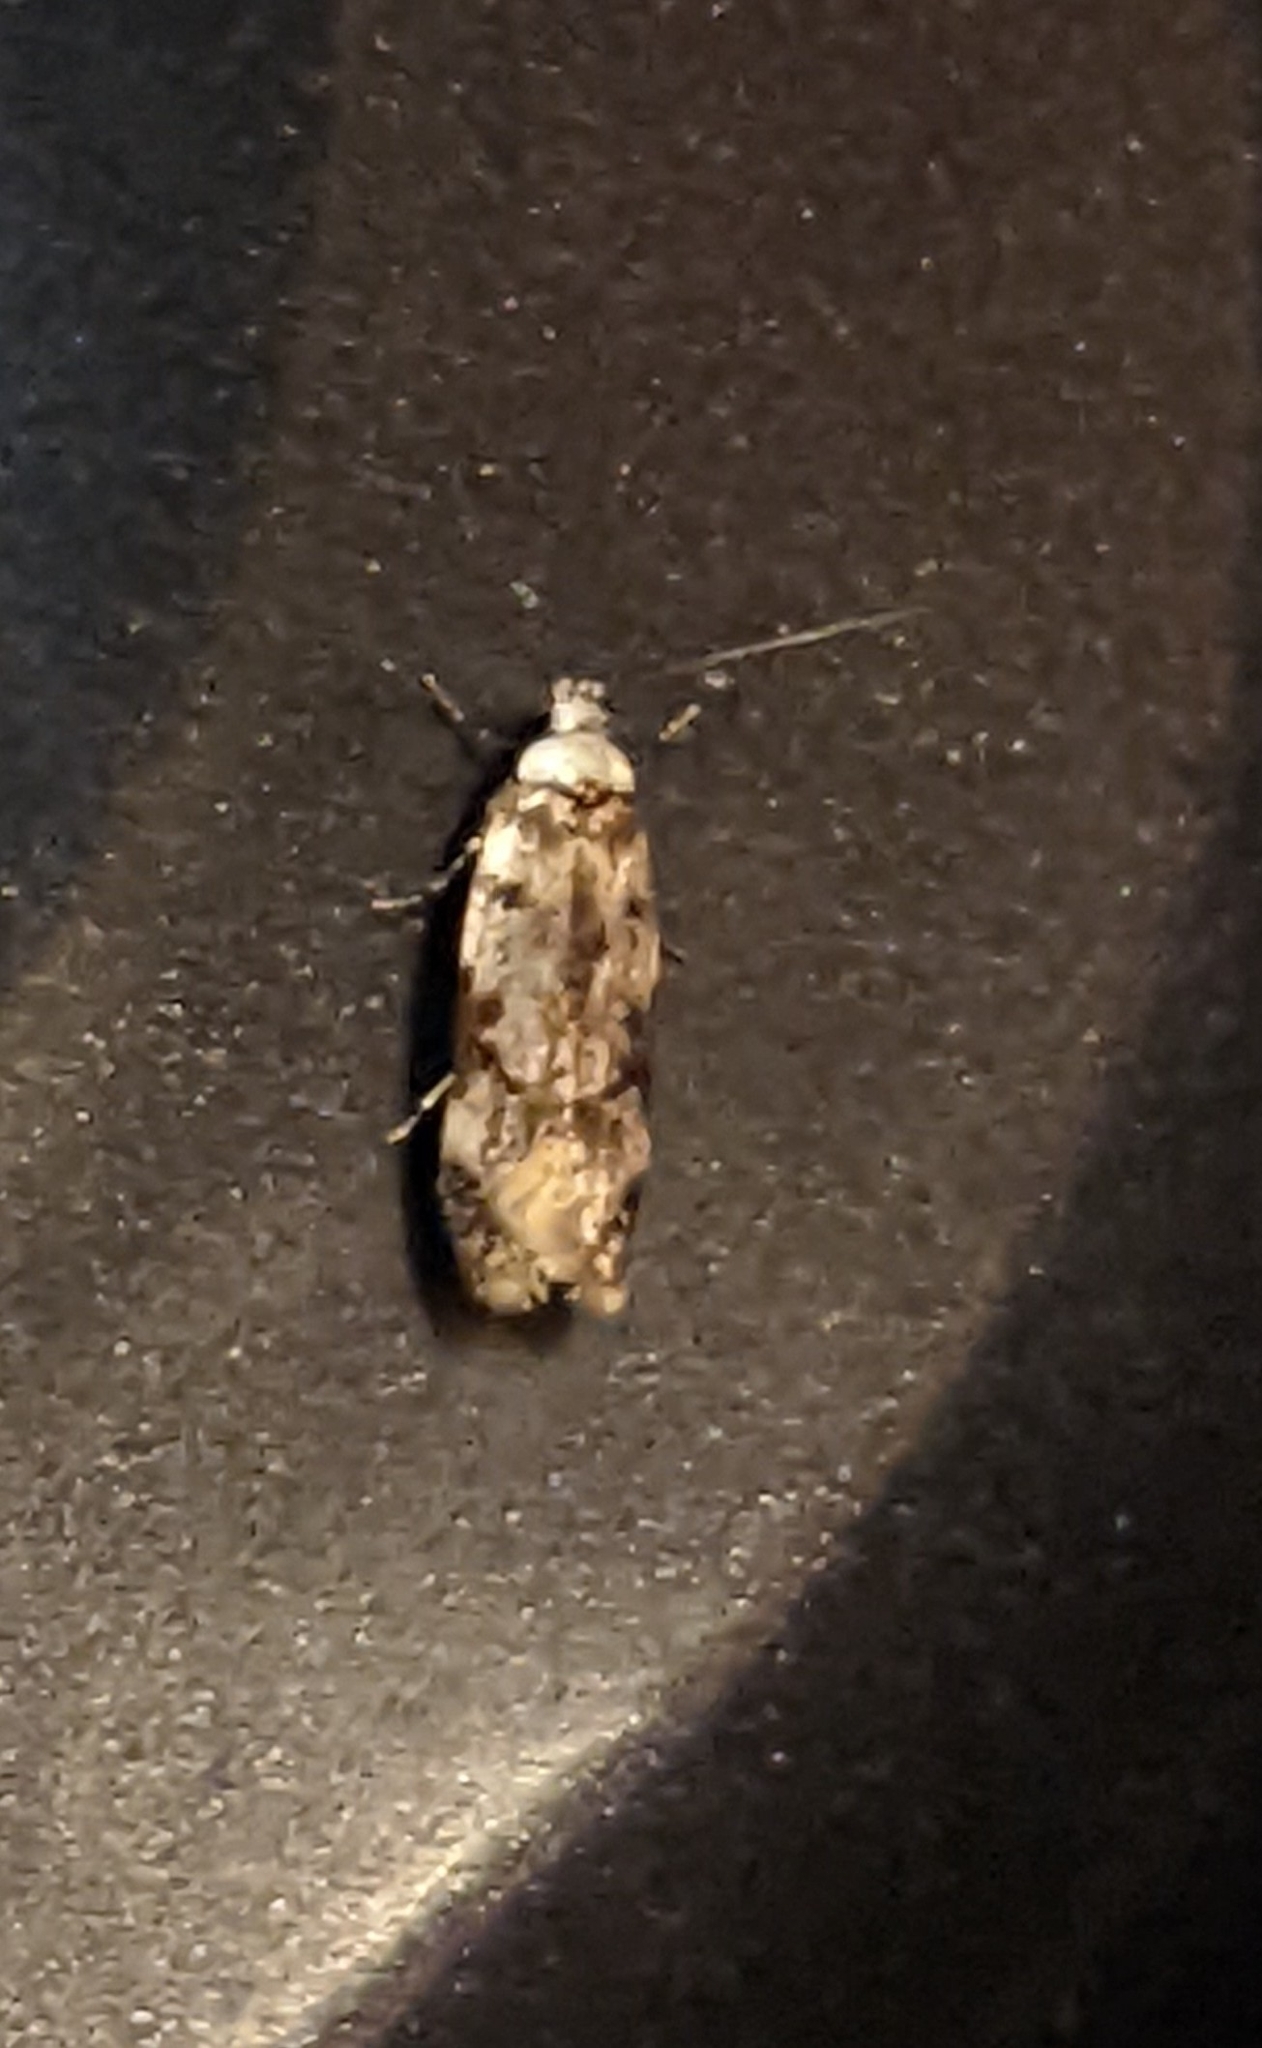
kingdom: Animalia
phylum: Arthropoda
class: Insecta
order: Lepidoptera
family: Oecophoridae
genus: Endrosis
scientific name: Endrosis sarcitrella
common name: White-shouldered house moth
